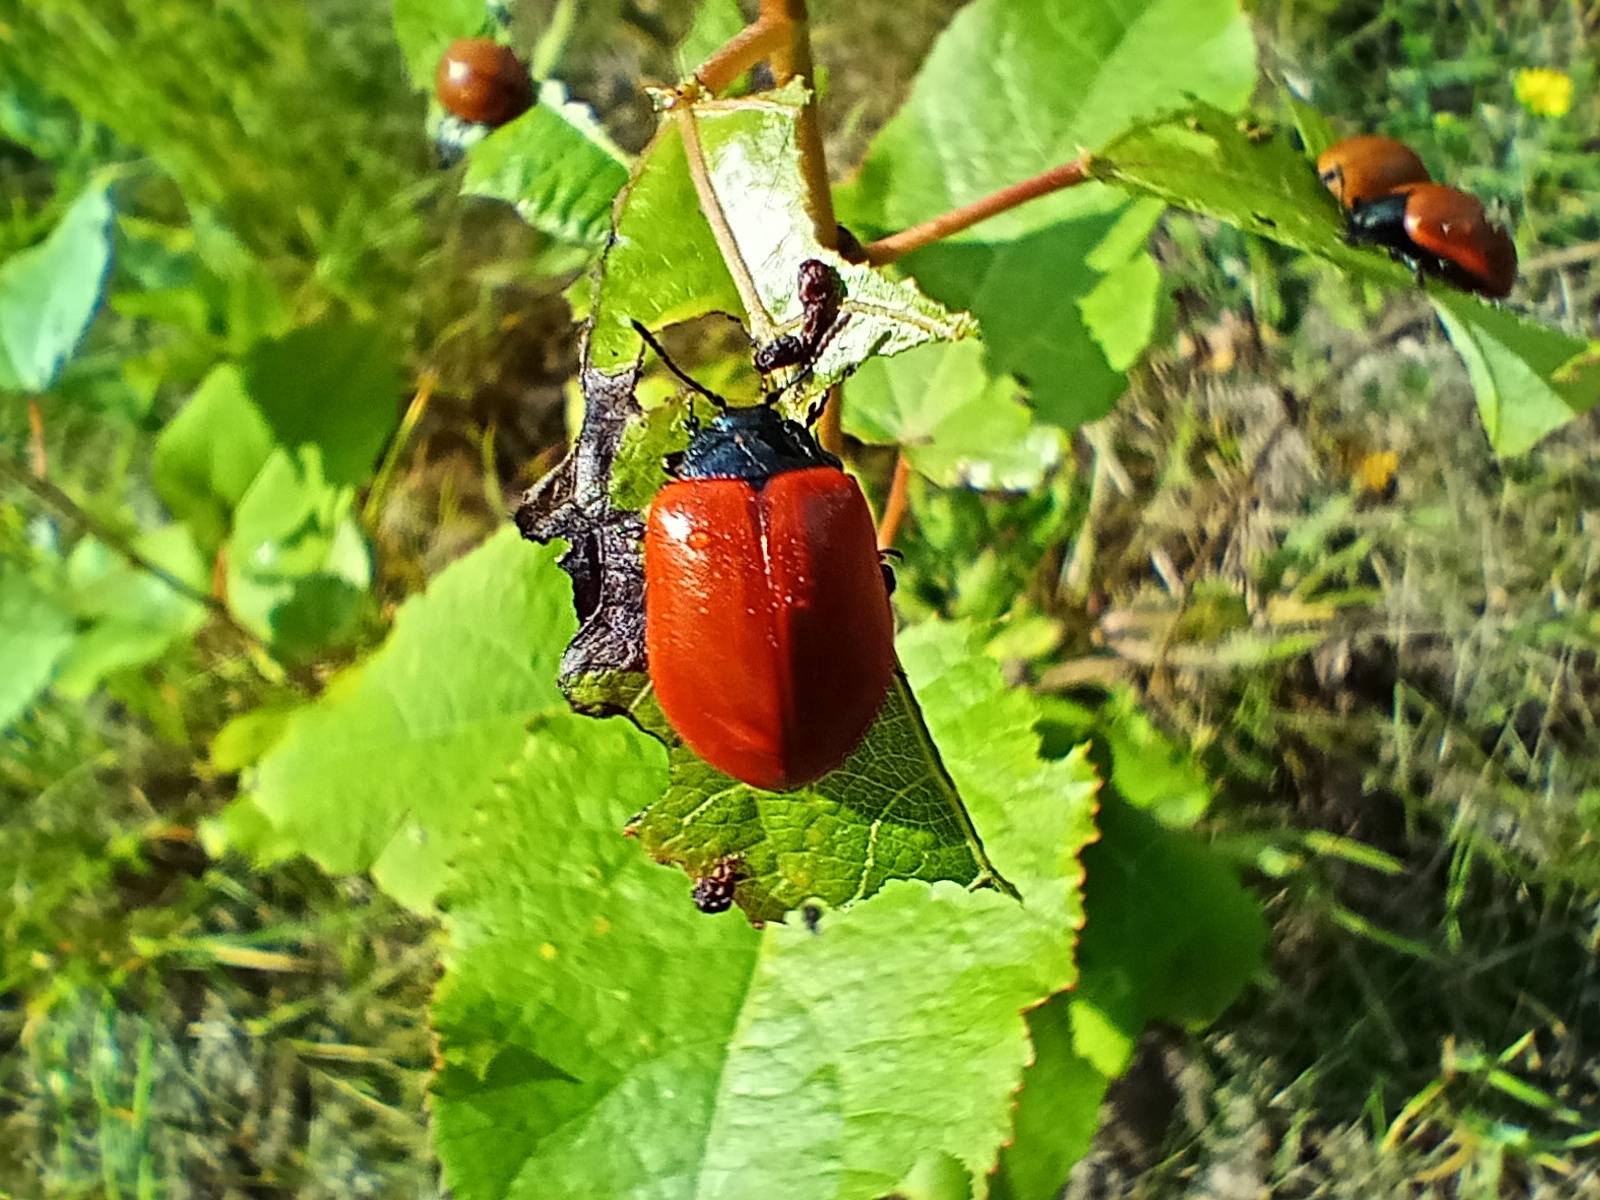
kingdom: Animalia
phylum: Arthropoda
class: Insecta
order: Coleoptera
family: Chrysomelidae
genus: Chrysomela
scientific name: Chrysomela populi
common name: Red poplar leaf beetle
